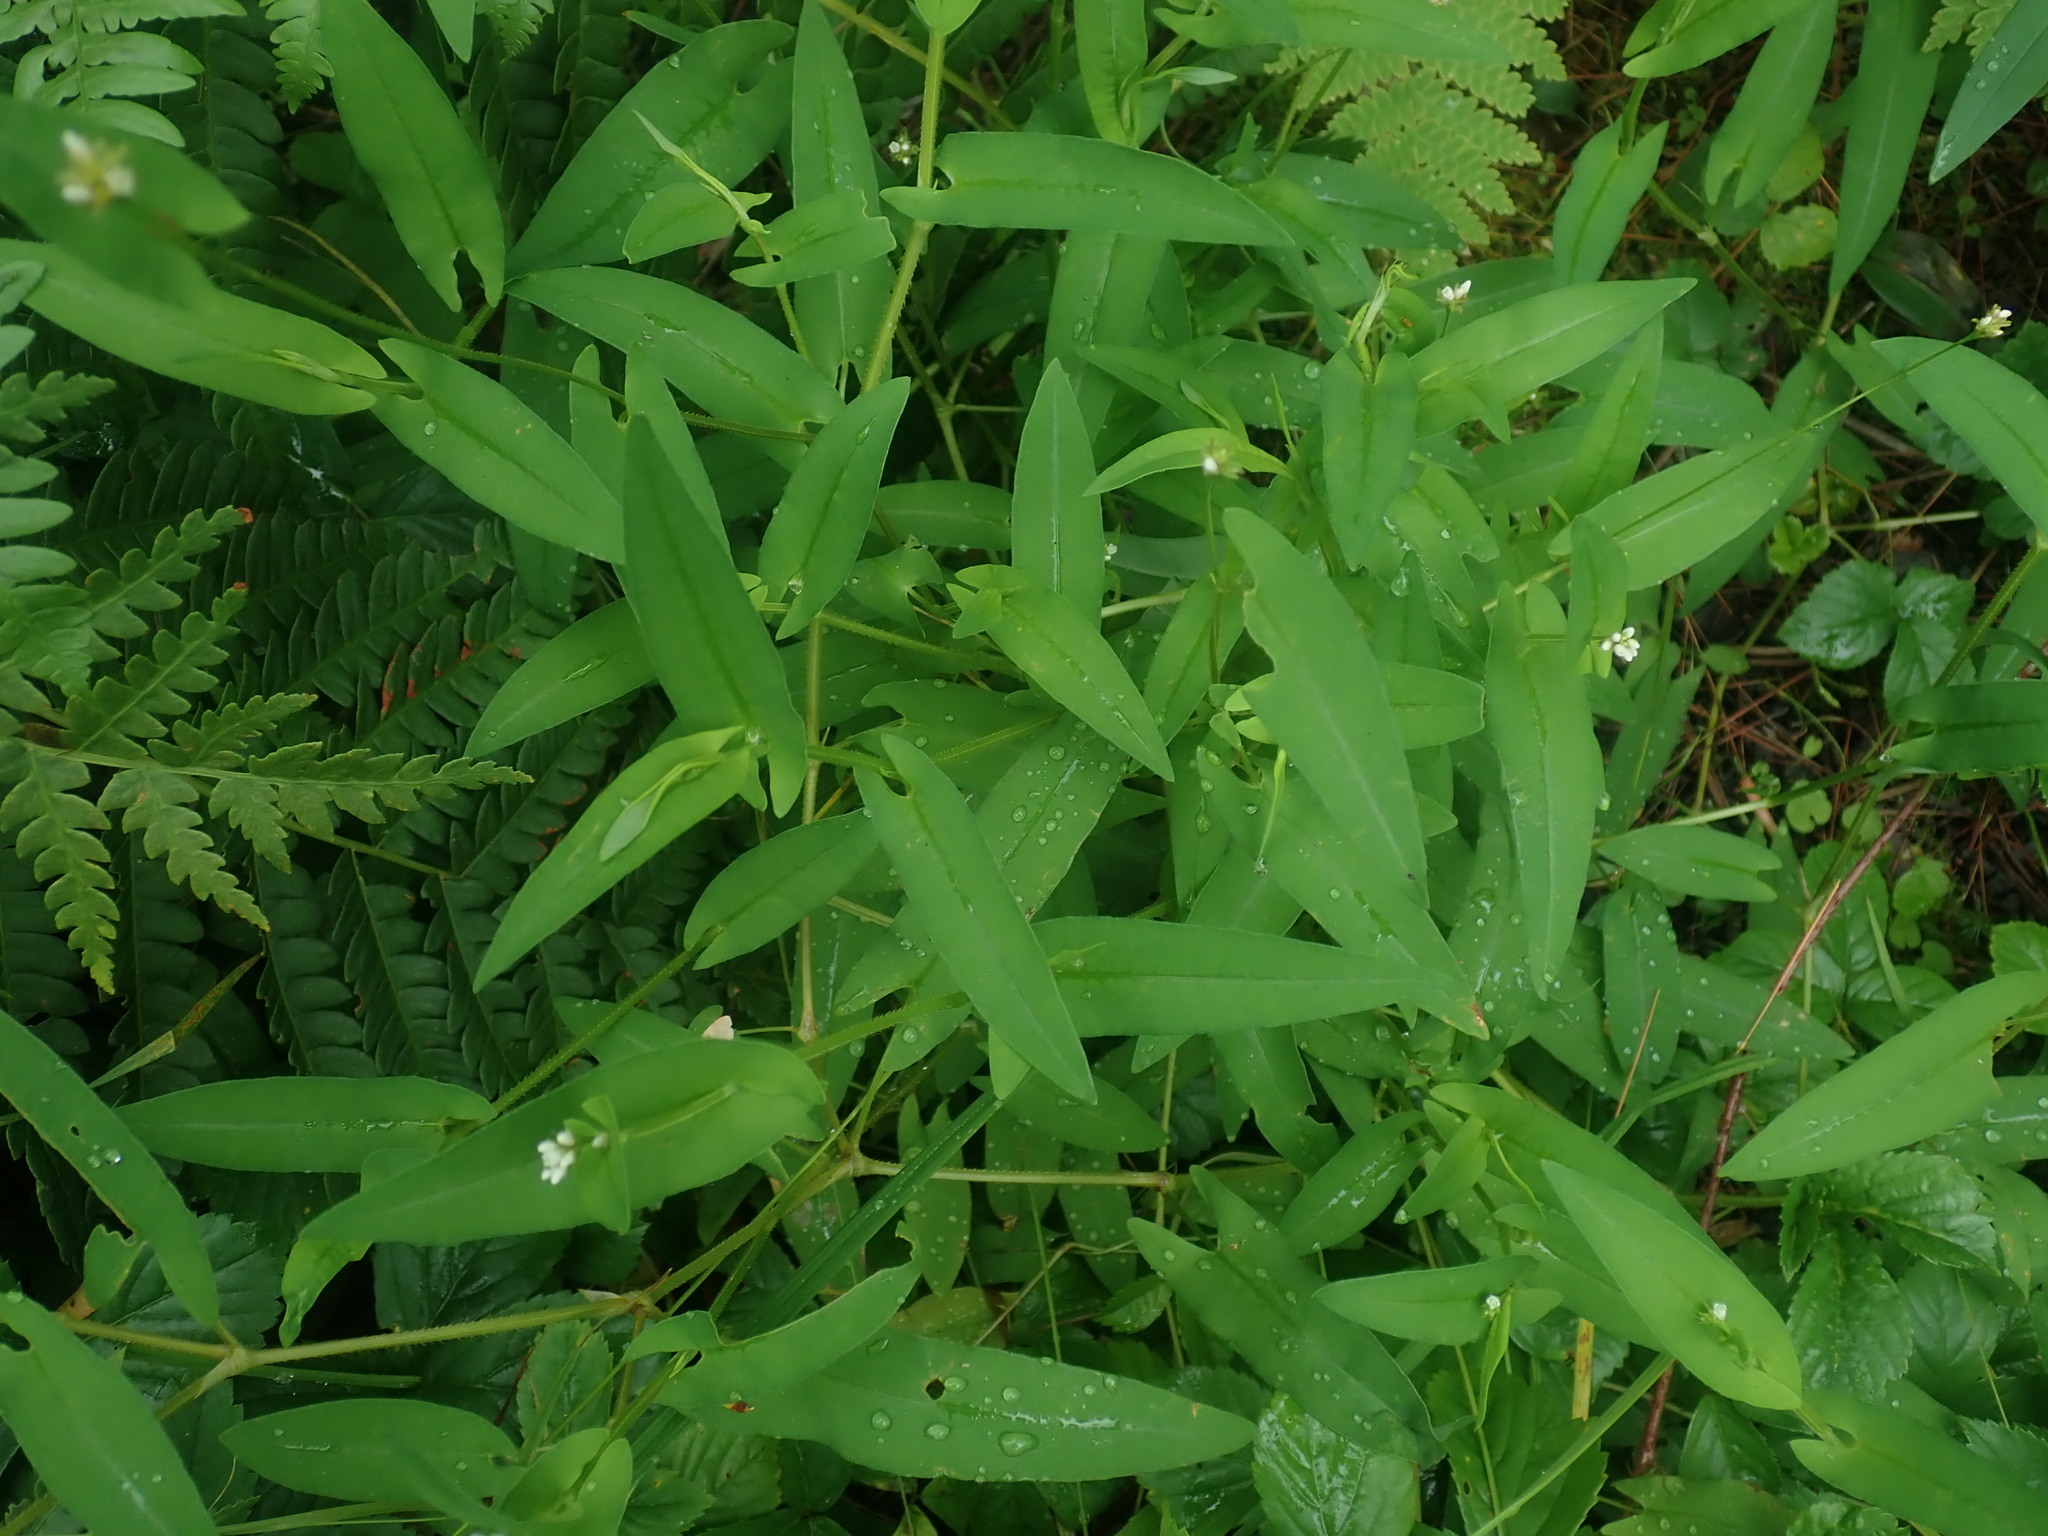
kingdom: Plantae
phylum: Tracheophyta
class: Magnoliopsida
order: Caryophyllales
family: Polygonaceae
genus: Persicaria
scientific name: Persicaria sagittata
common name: American tearthumb
